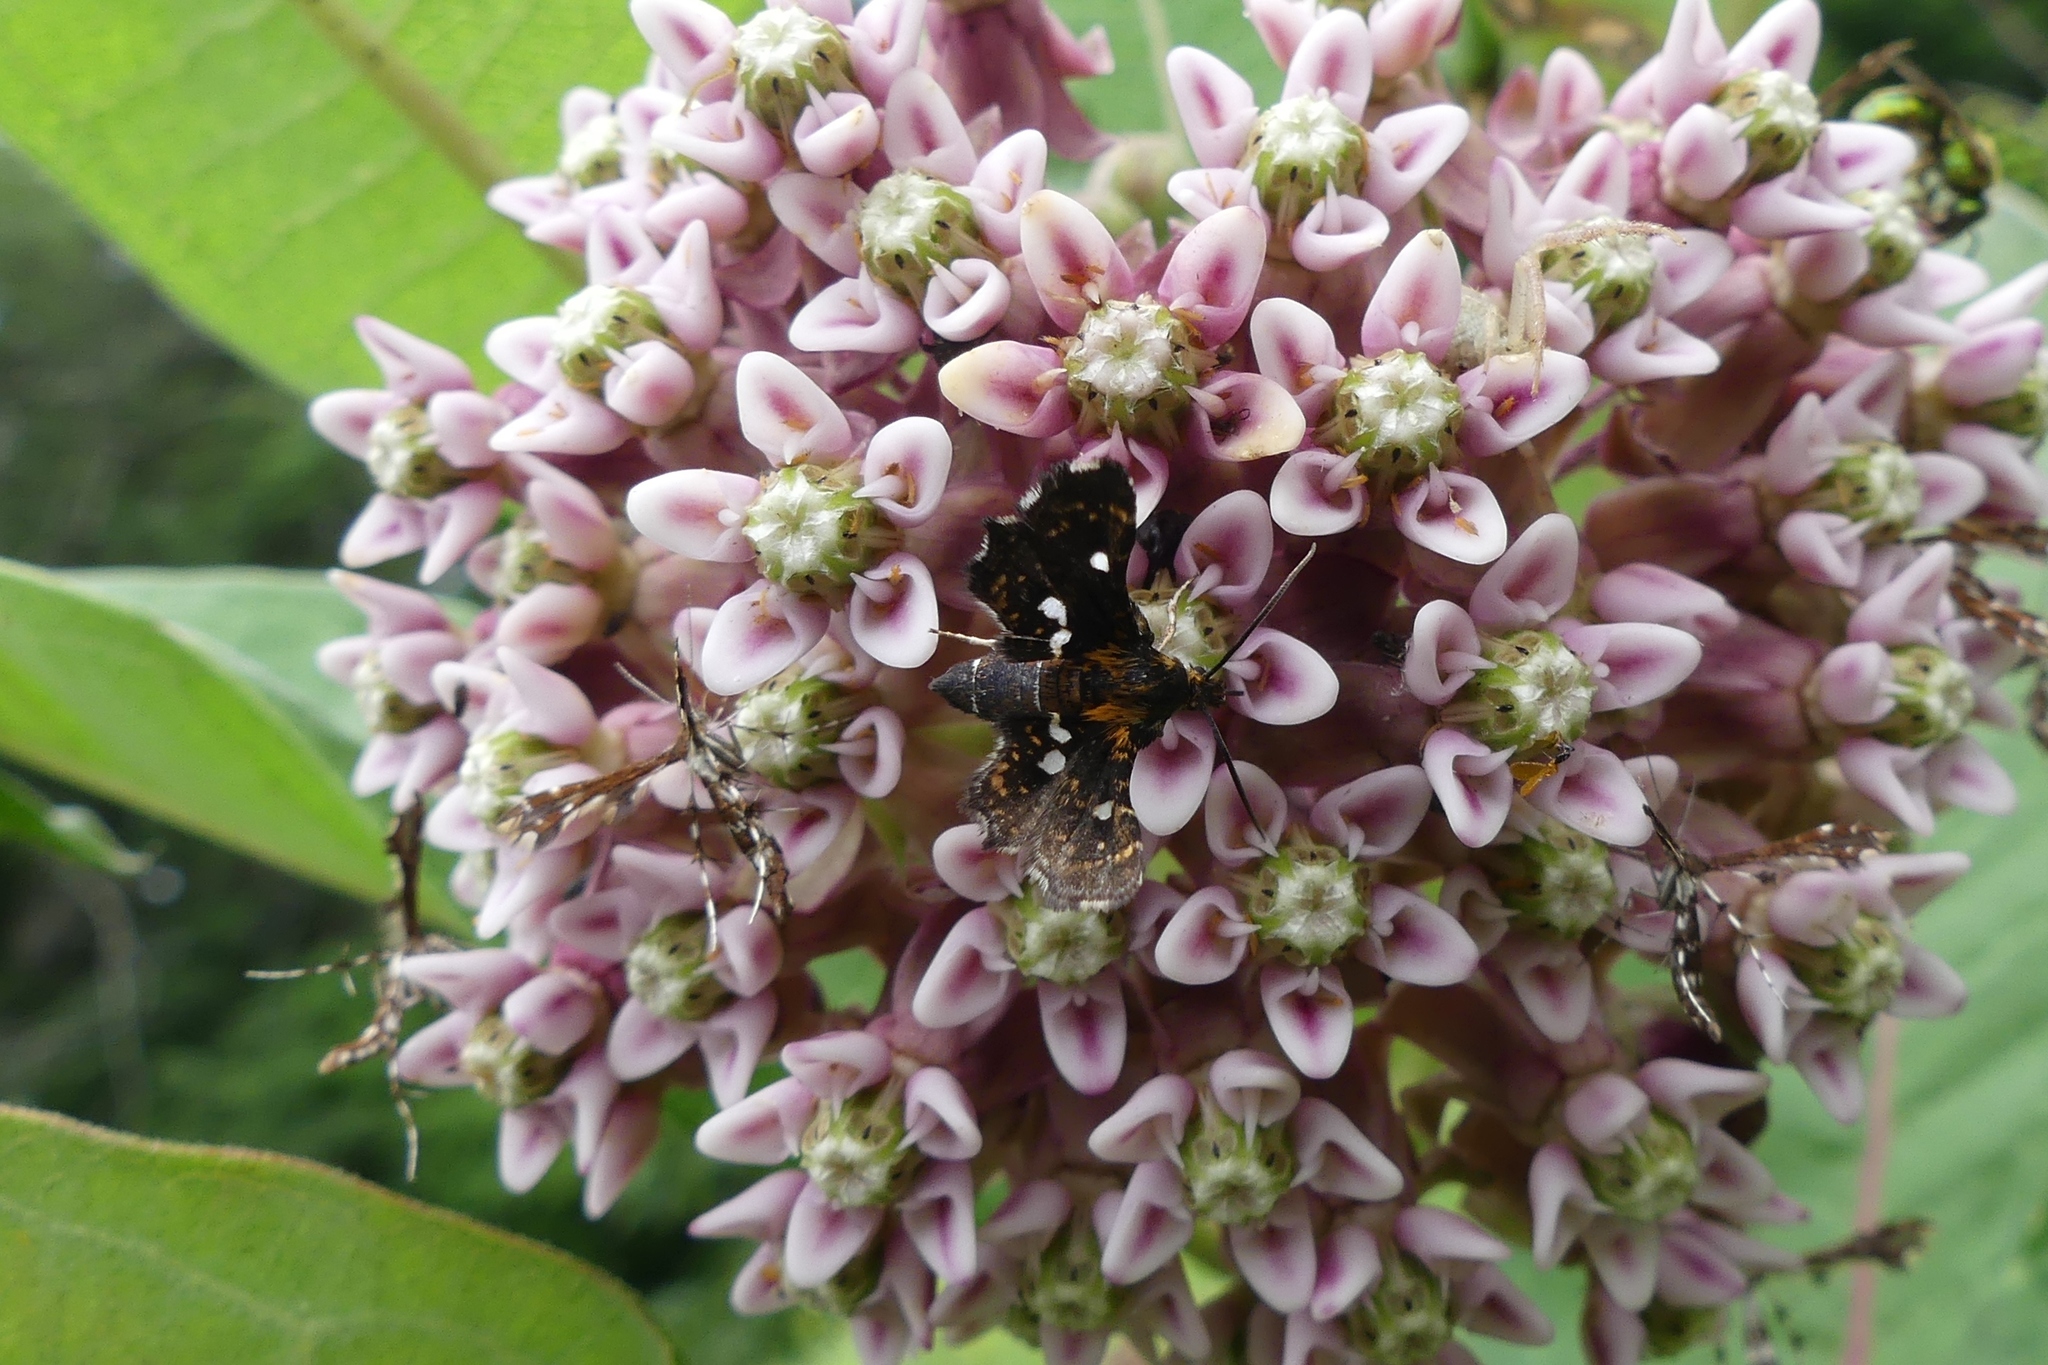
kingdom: Animalia
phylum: Arthropoda
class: Insecta
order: Lepidoptera
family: Thyrididae
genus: Thyris
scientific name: Thyris maculata
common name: Spotted thyris moth
